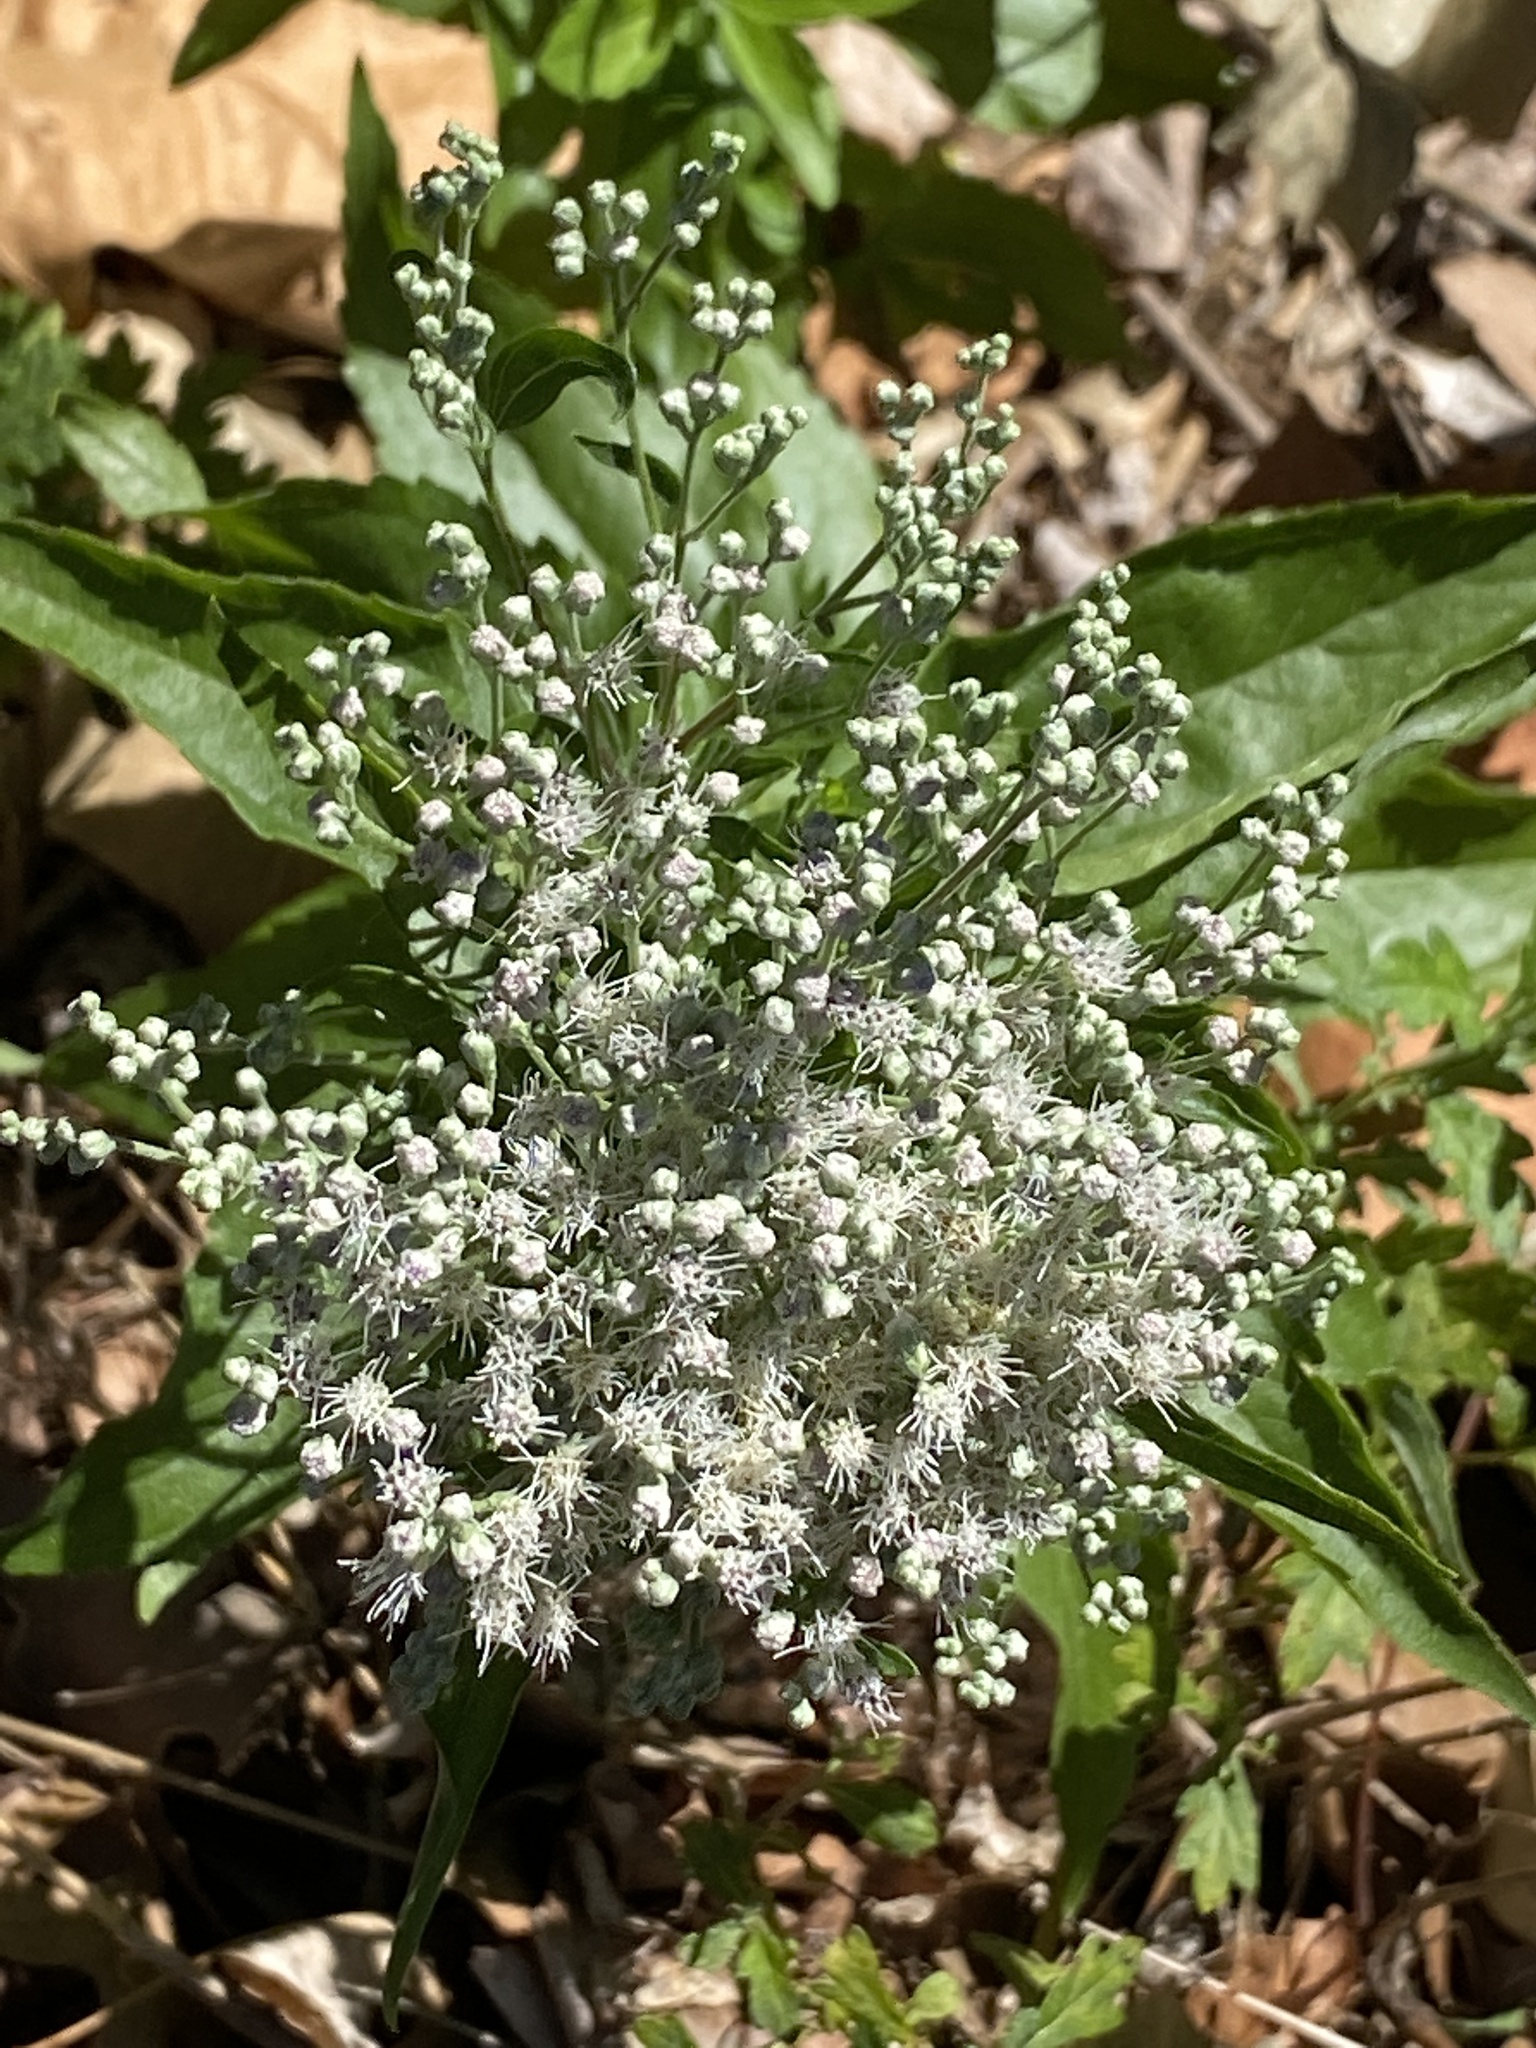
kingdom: Plantae
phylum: Tracheophyta
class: Magnoliopsida
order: Asterales
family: Asteraceae
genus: Eupatorium
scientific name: Eupatorium serotinum
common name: Late boneset
